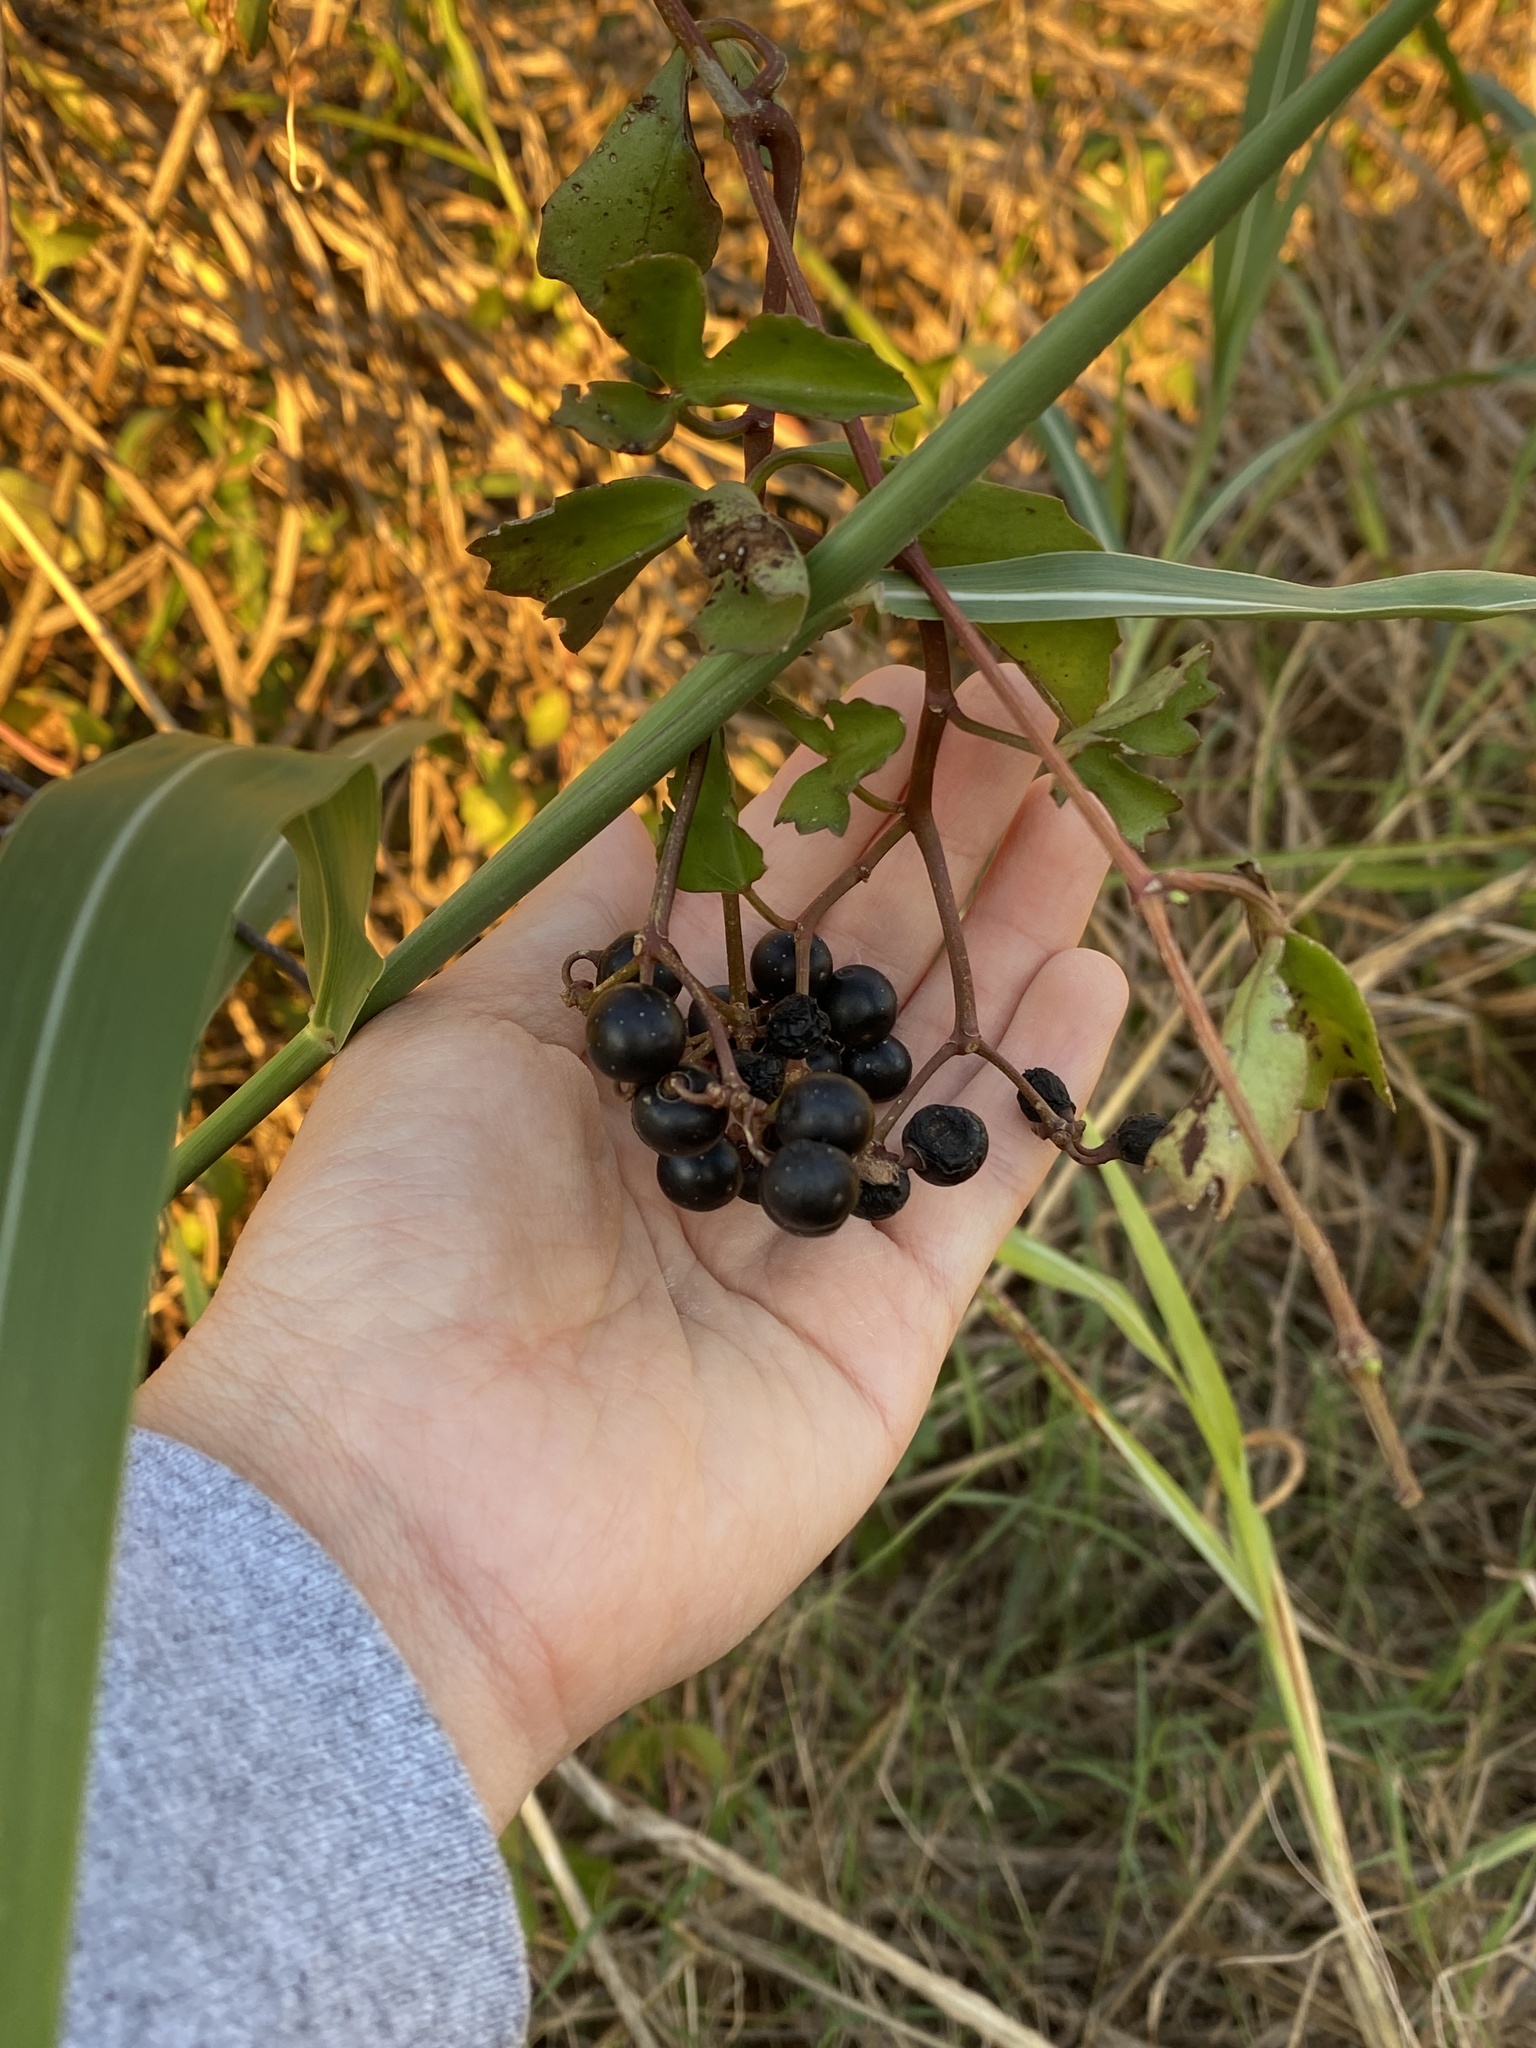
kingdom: Plantae
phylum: Tracheophyta
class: Magnoliopsida
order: Vitales
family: Vitaceae
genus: Cissus
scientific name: Cissus trifoliata
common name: Vine-sorrel
